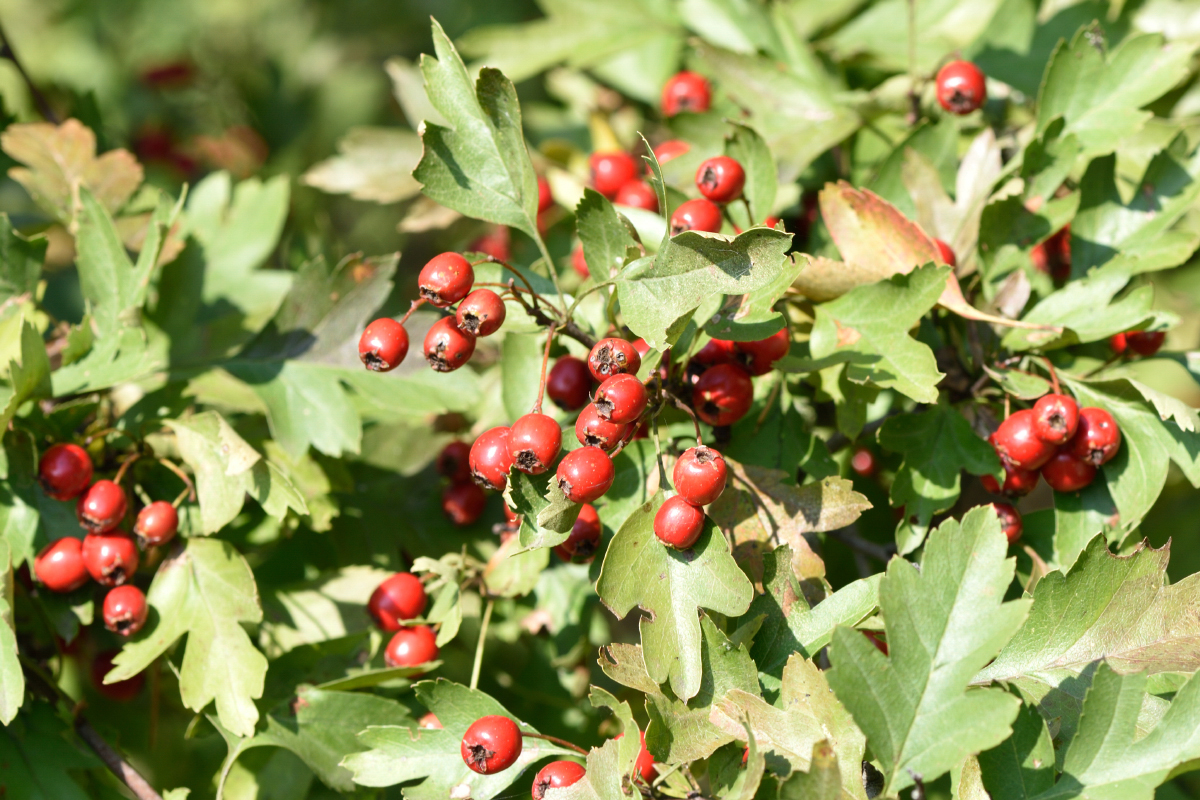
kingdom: Plantae
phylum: Tracheophyta
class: Magnoliopsida
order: Rosales
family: Rosaceae
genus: Crataegus
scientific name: Crataegus monogyna
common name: Hawthorn
